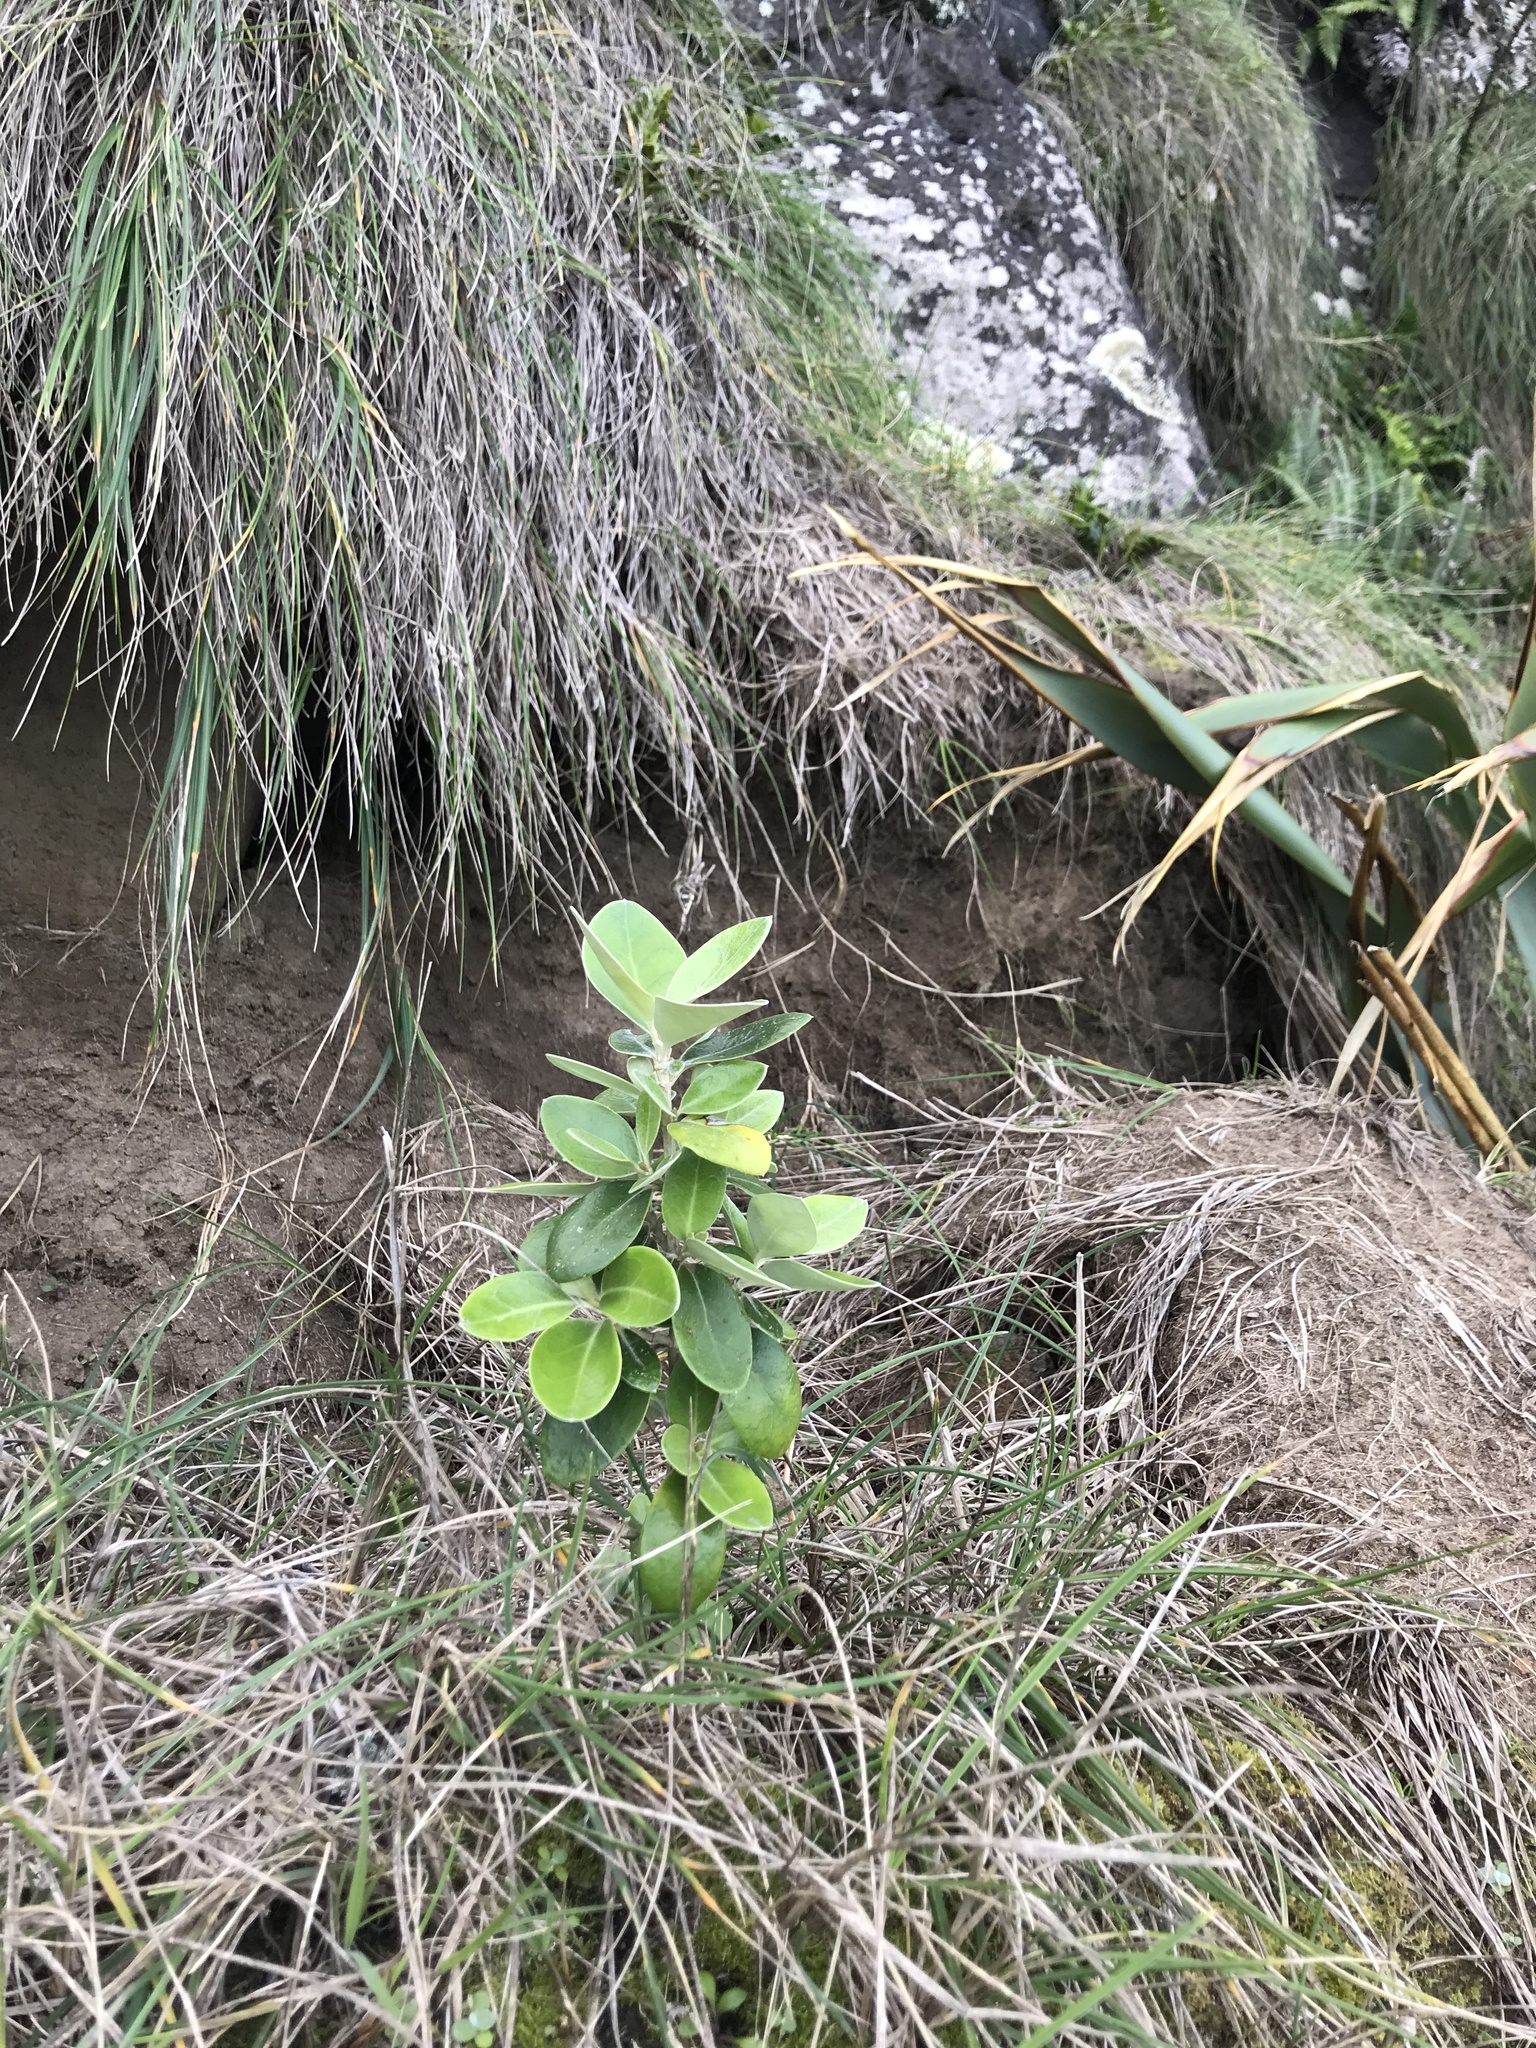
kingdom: Plantae
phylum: Tracheophyta
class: Magnoliopsida
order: Asterales
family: Asteraceae
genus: Olearia
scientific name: Olearia traversiorum
